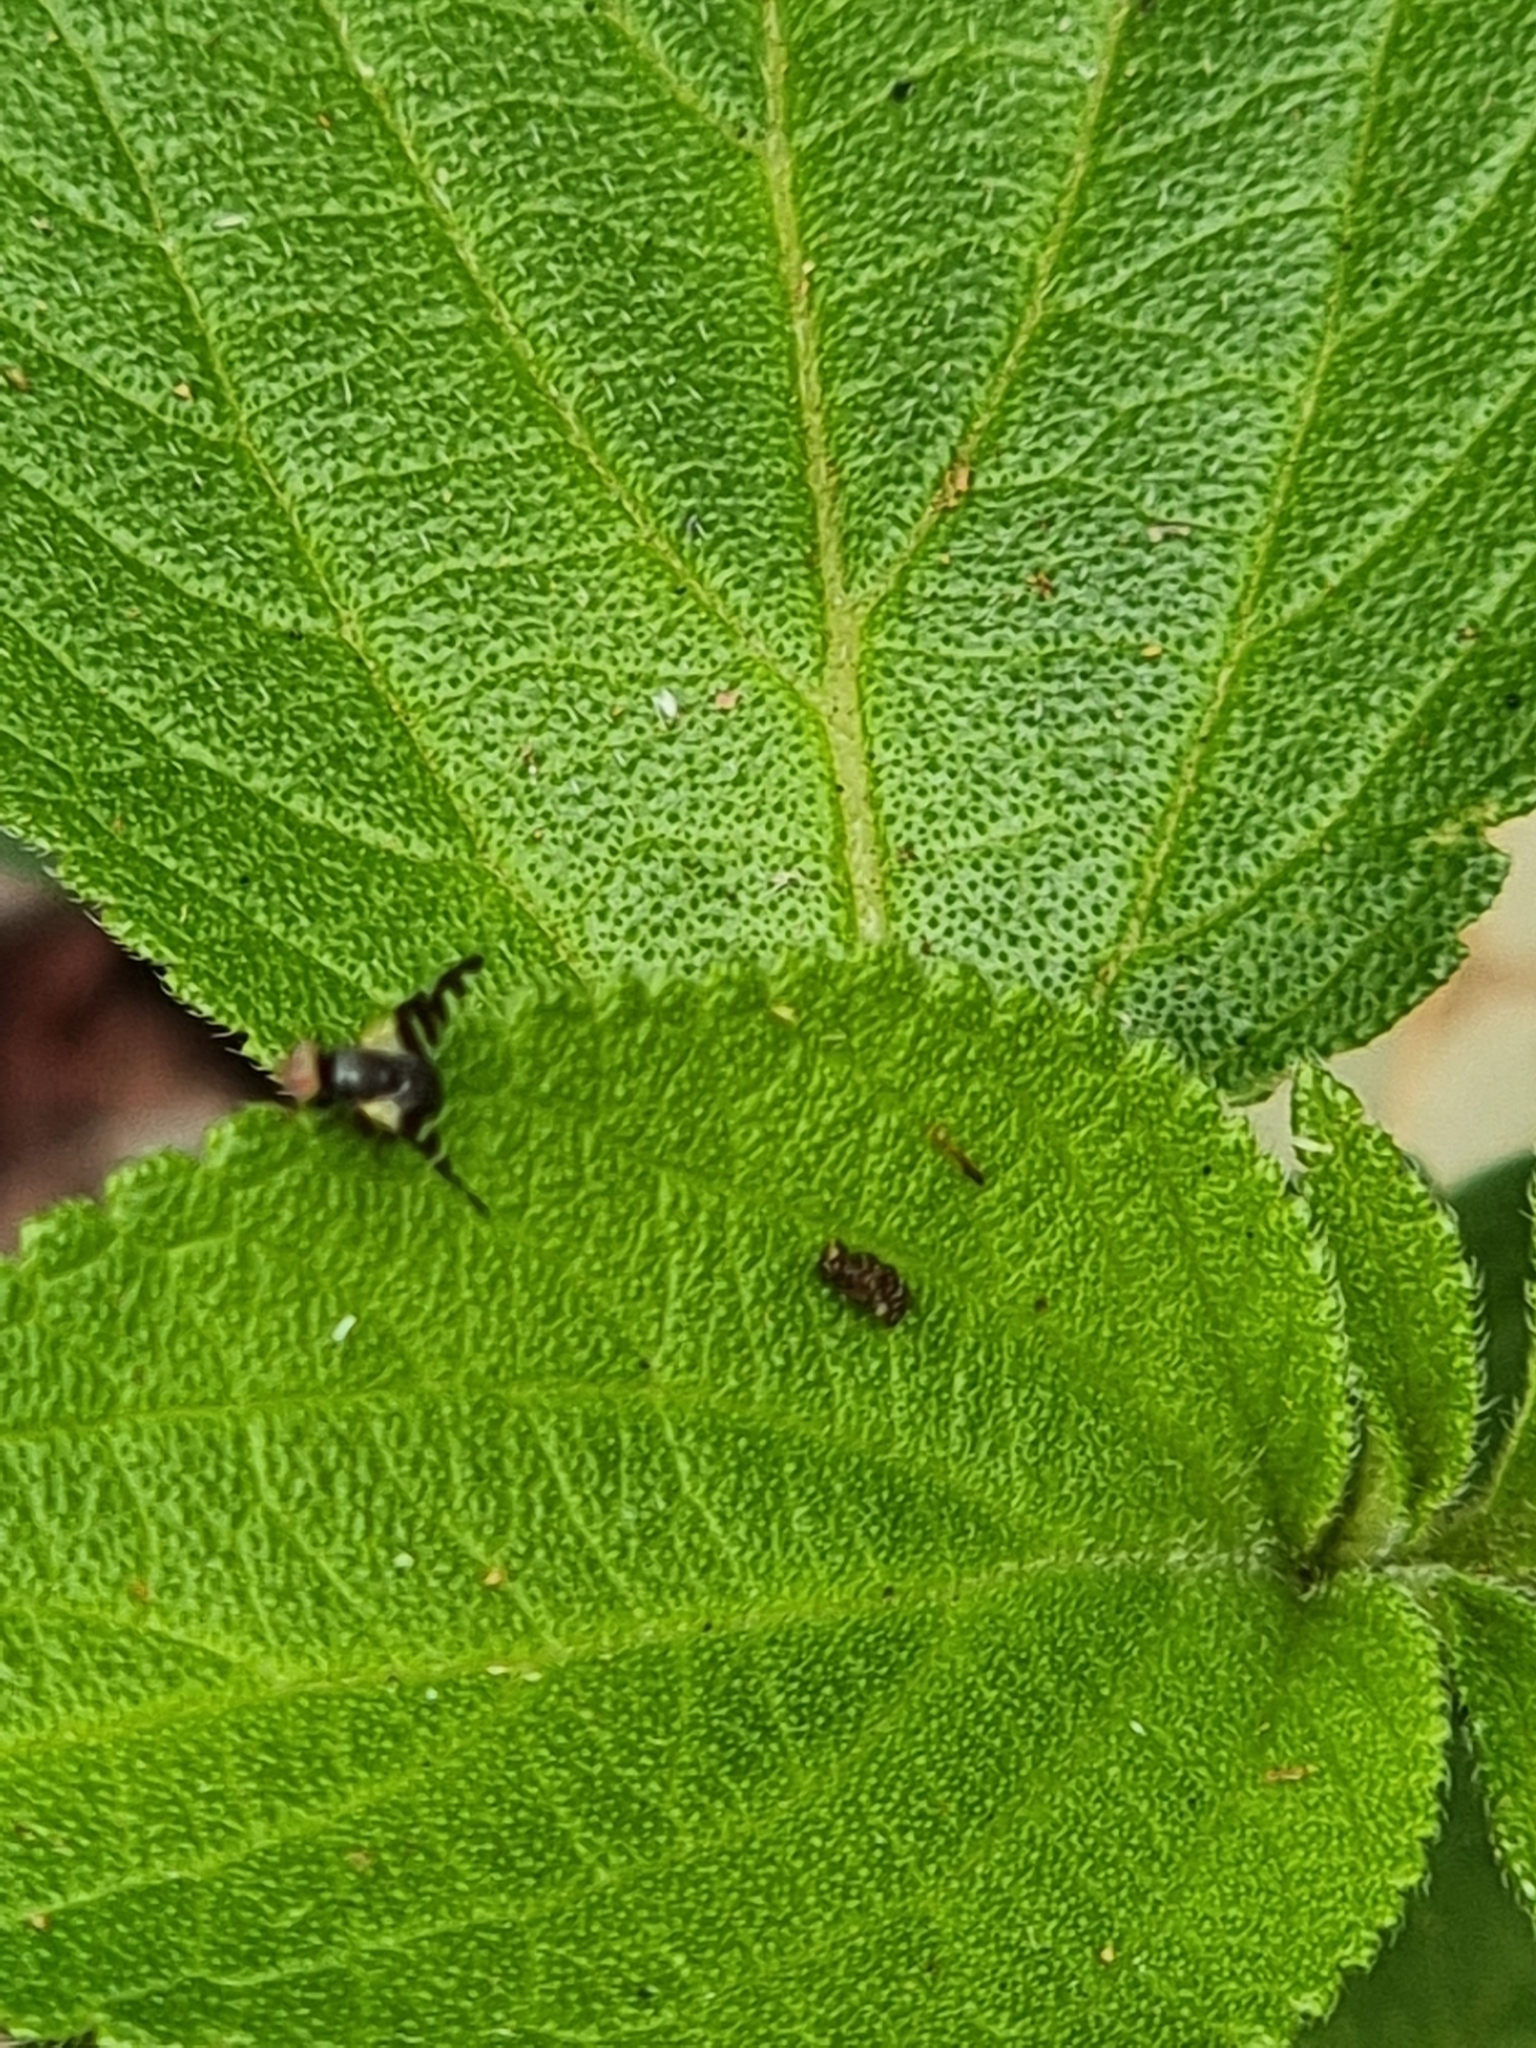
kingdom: Animalia
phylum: Arthropoda
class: Insecta
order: Diptera
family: Tephritidae
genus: Sphaeniscus
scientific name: Sphaeniscus atilius
